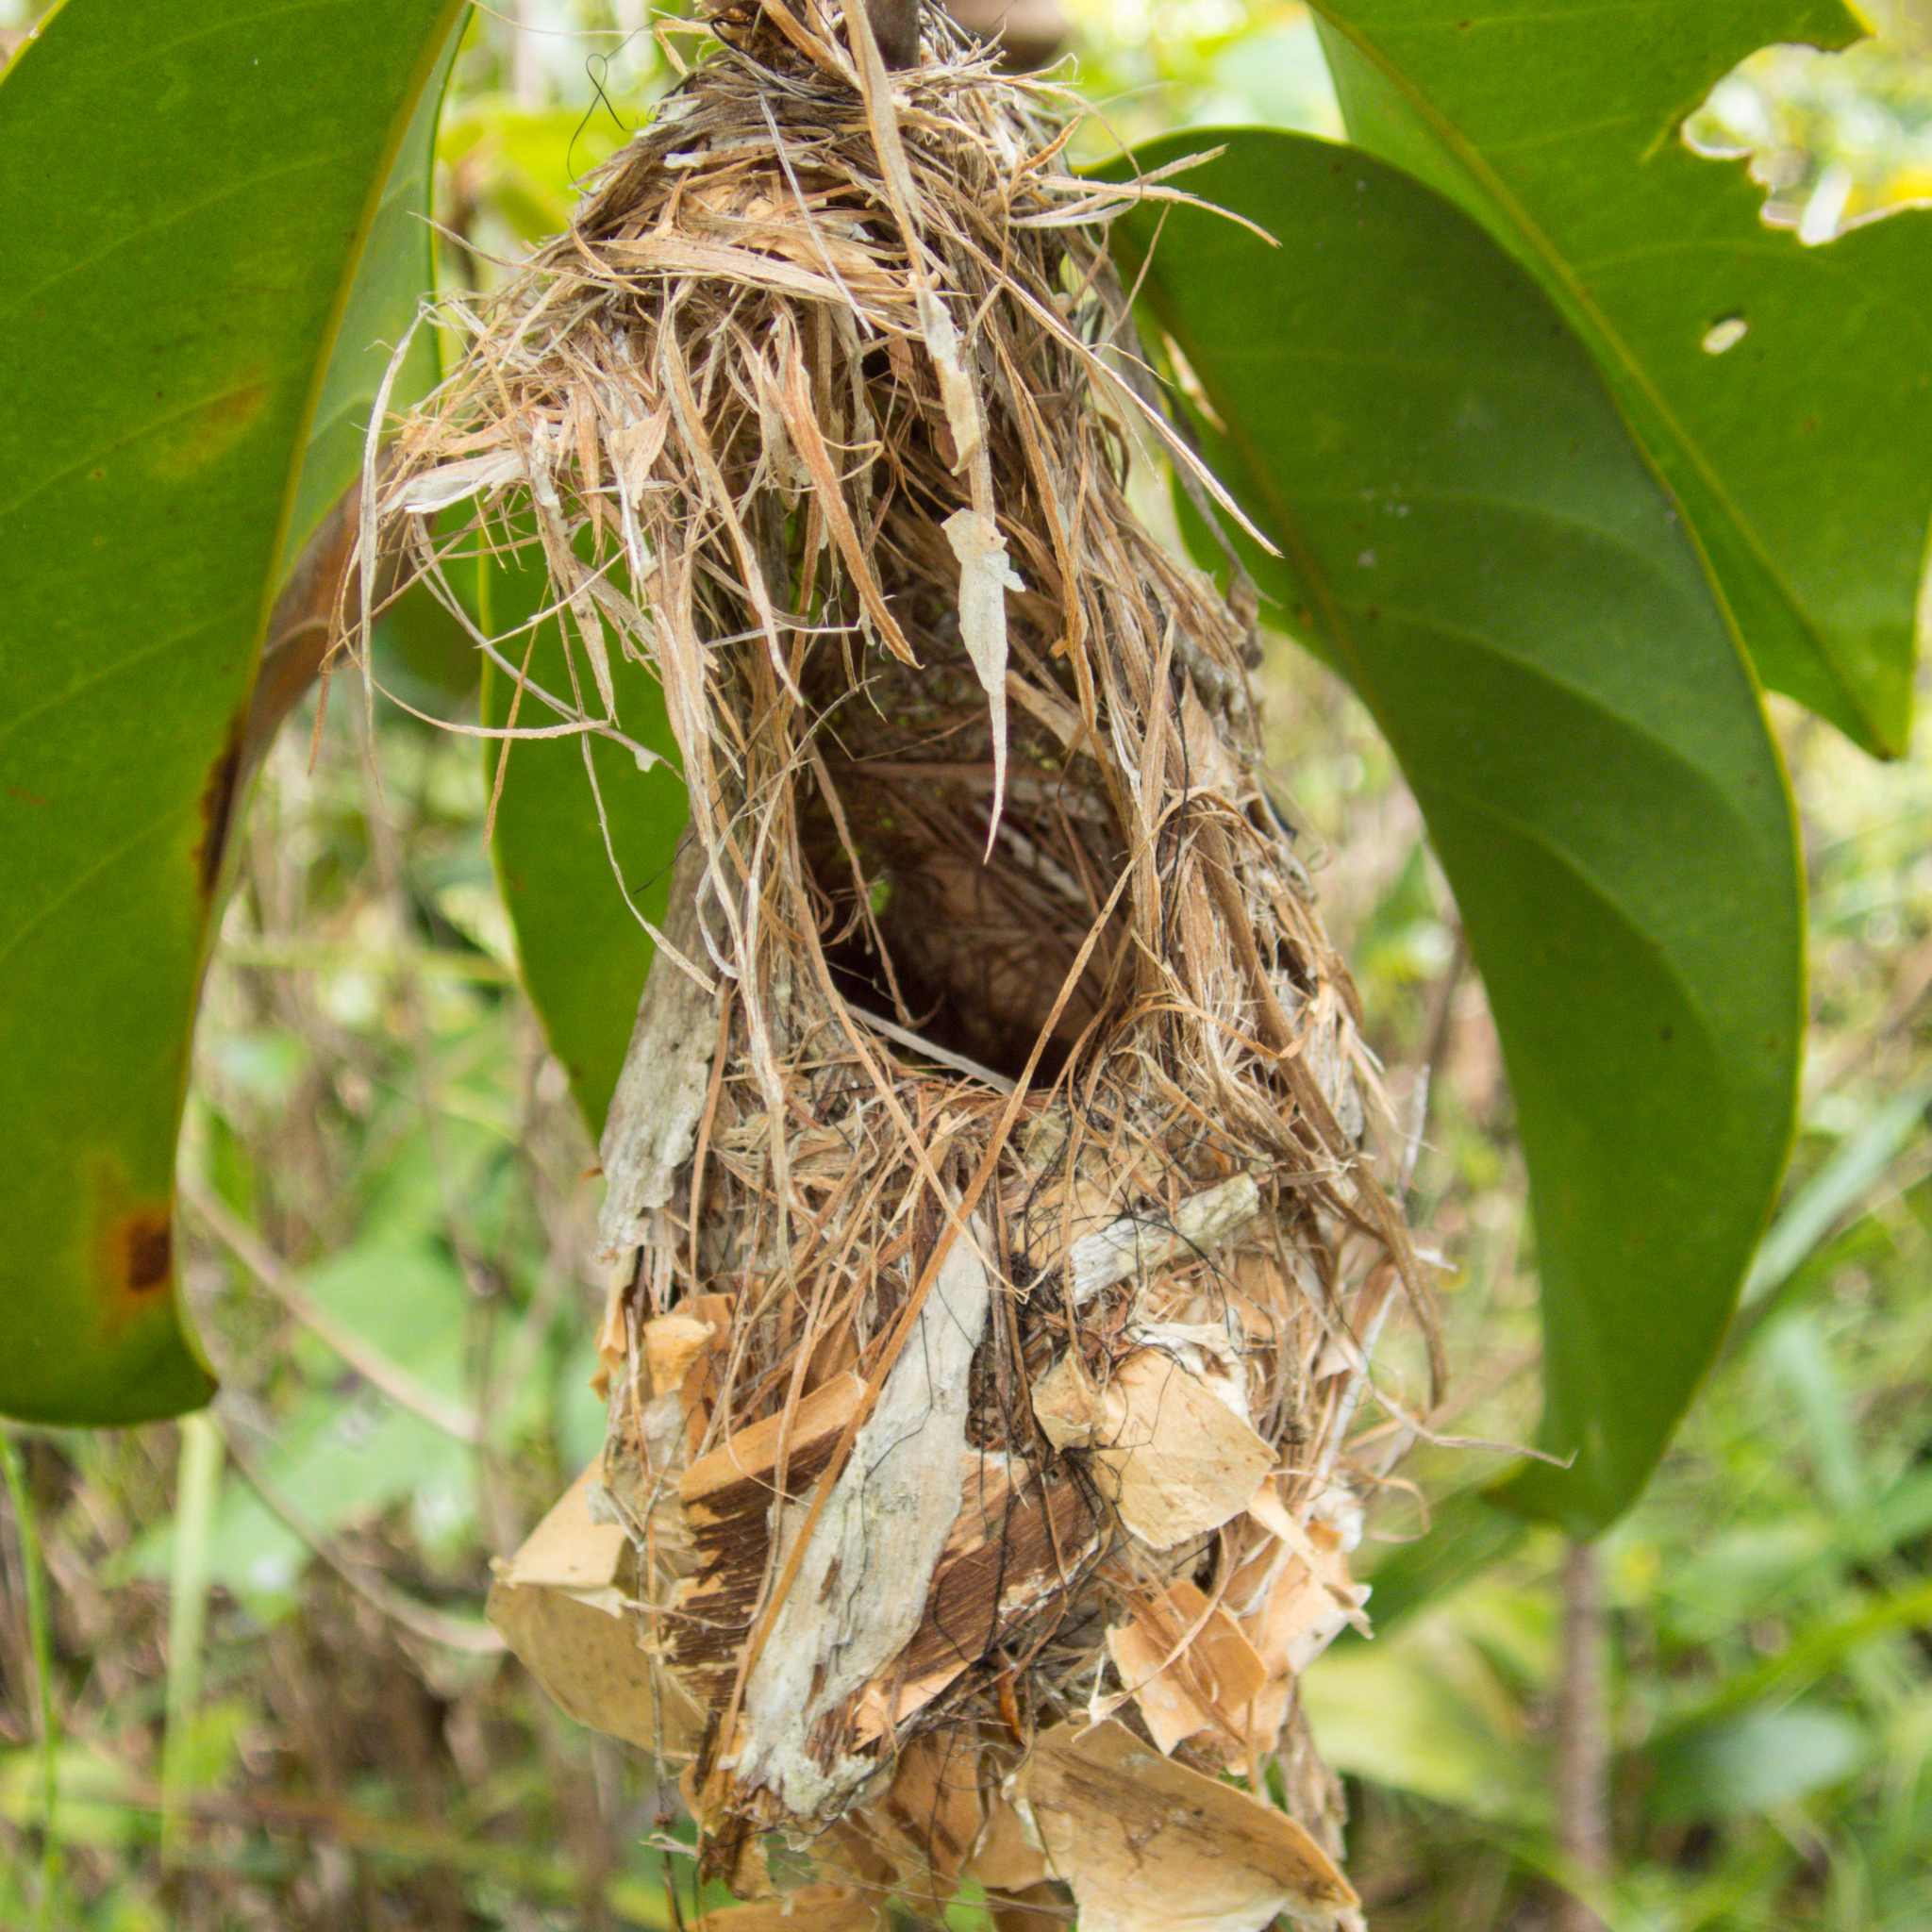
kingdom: Animalia
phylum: Chordata
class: Aves
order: Passeriformes
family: Nectariniidae
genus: Cinnyris
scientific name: Cinnyris
